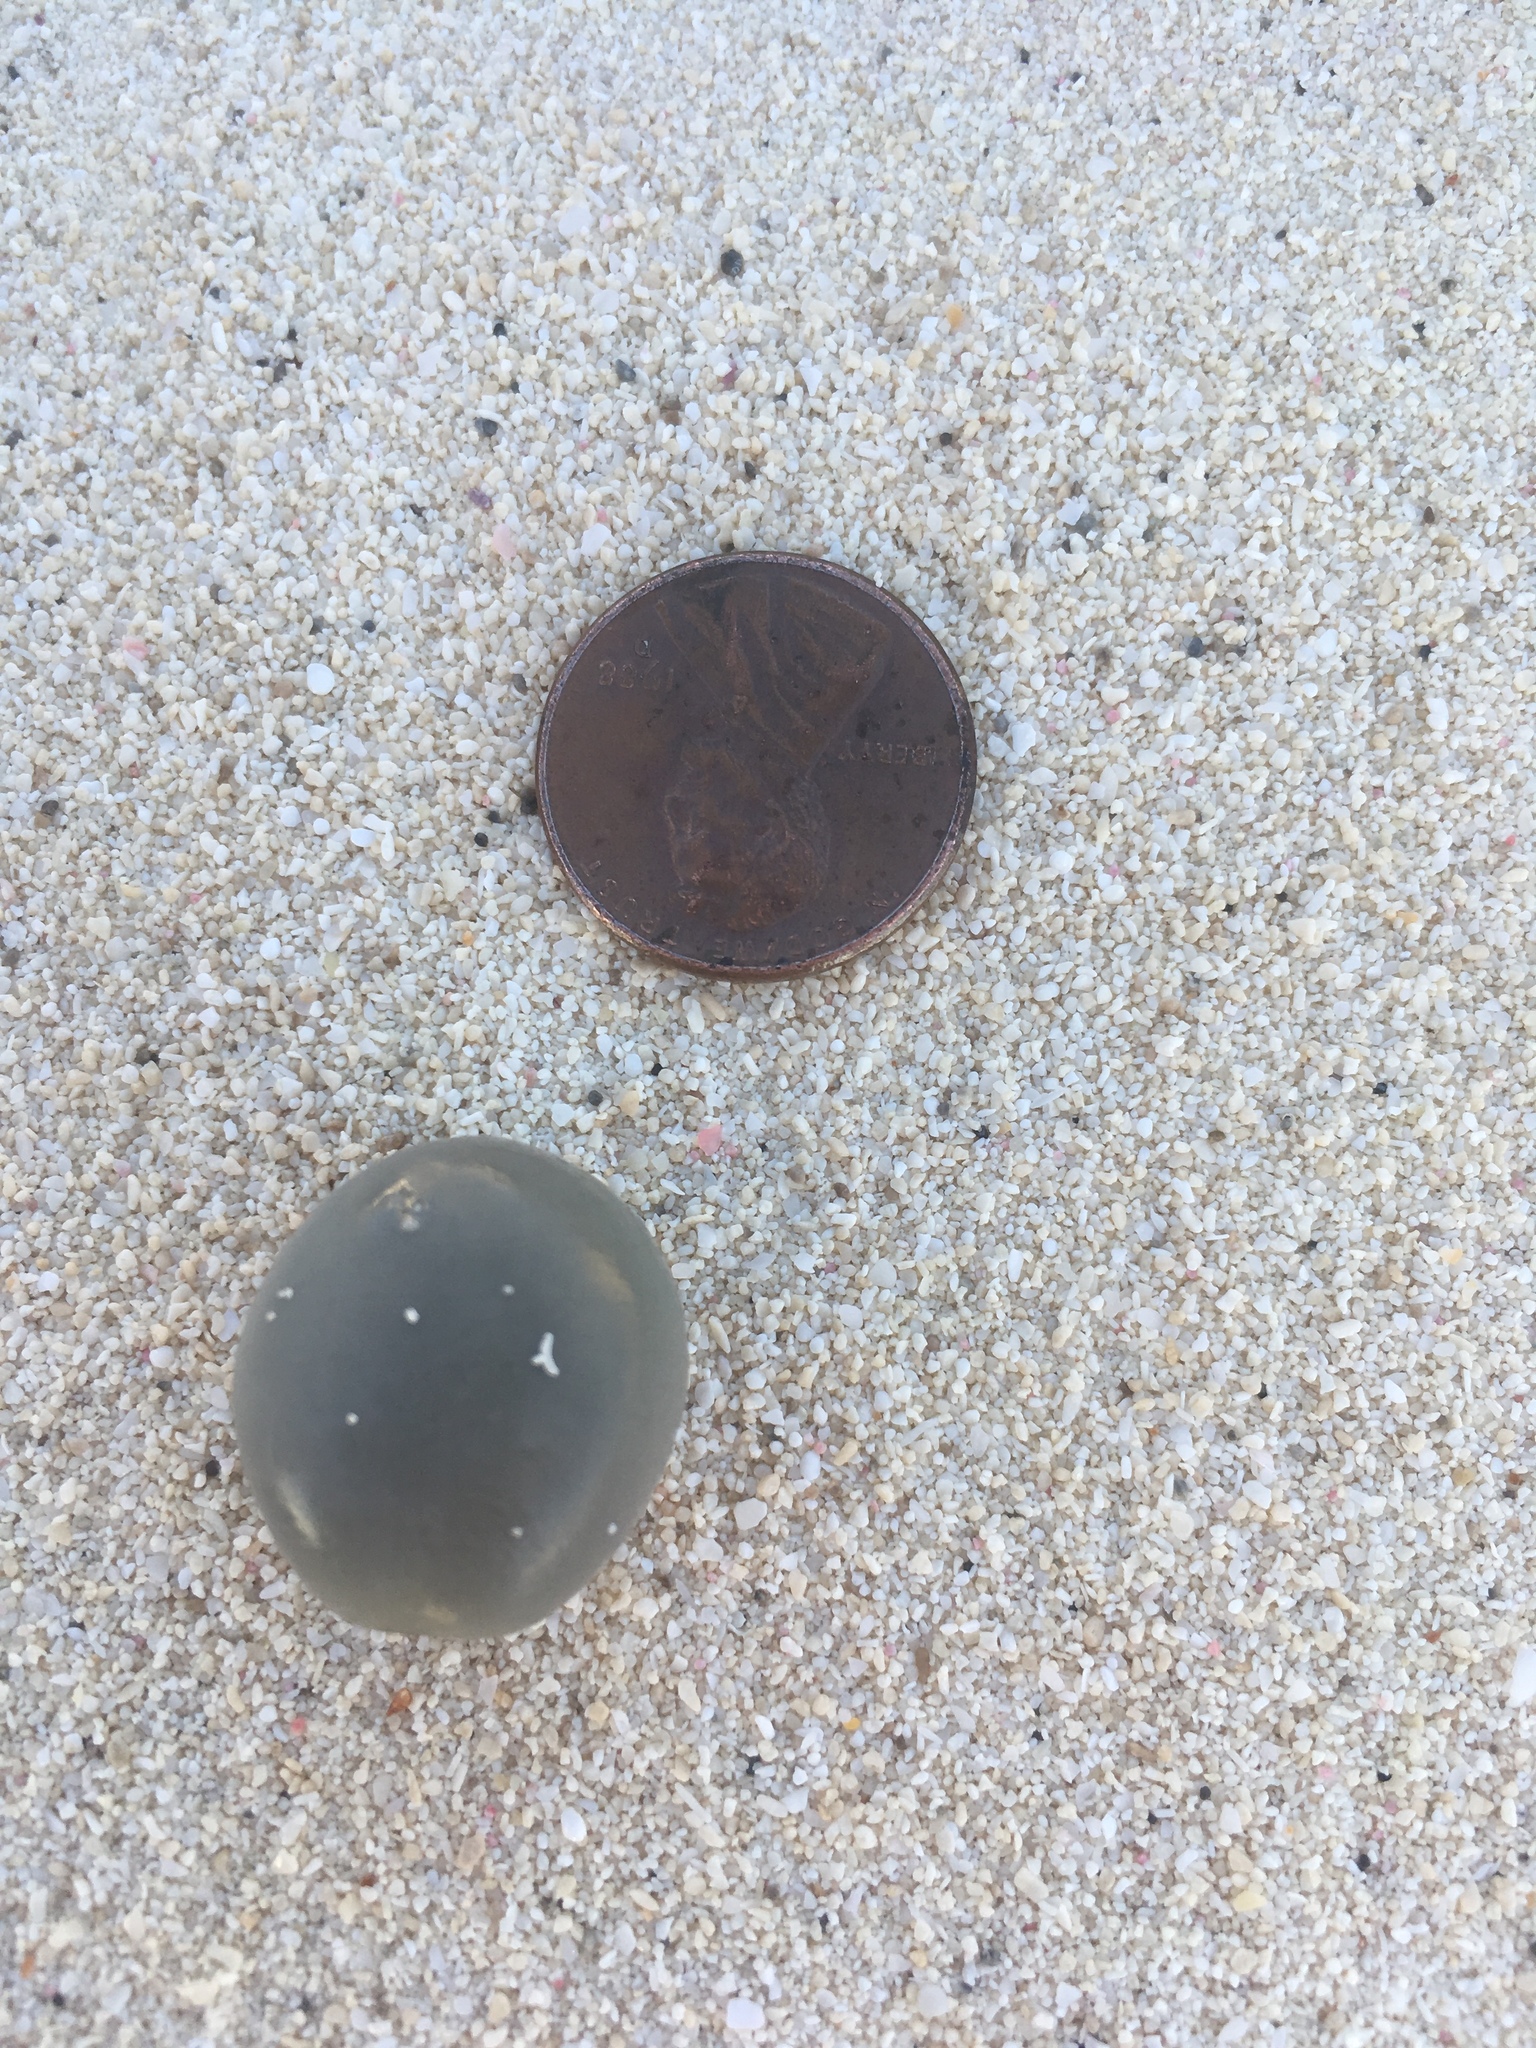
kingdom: Plantae
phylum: Tracheophyta
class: Magnoliopsida
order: Fabales
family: Fabaceae
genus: Guilandina
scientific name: Guilandina bonduc
